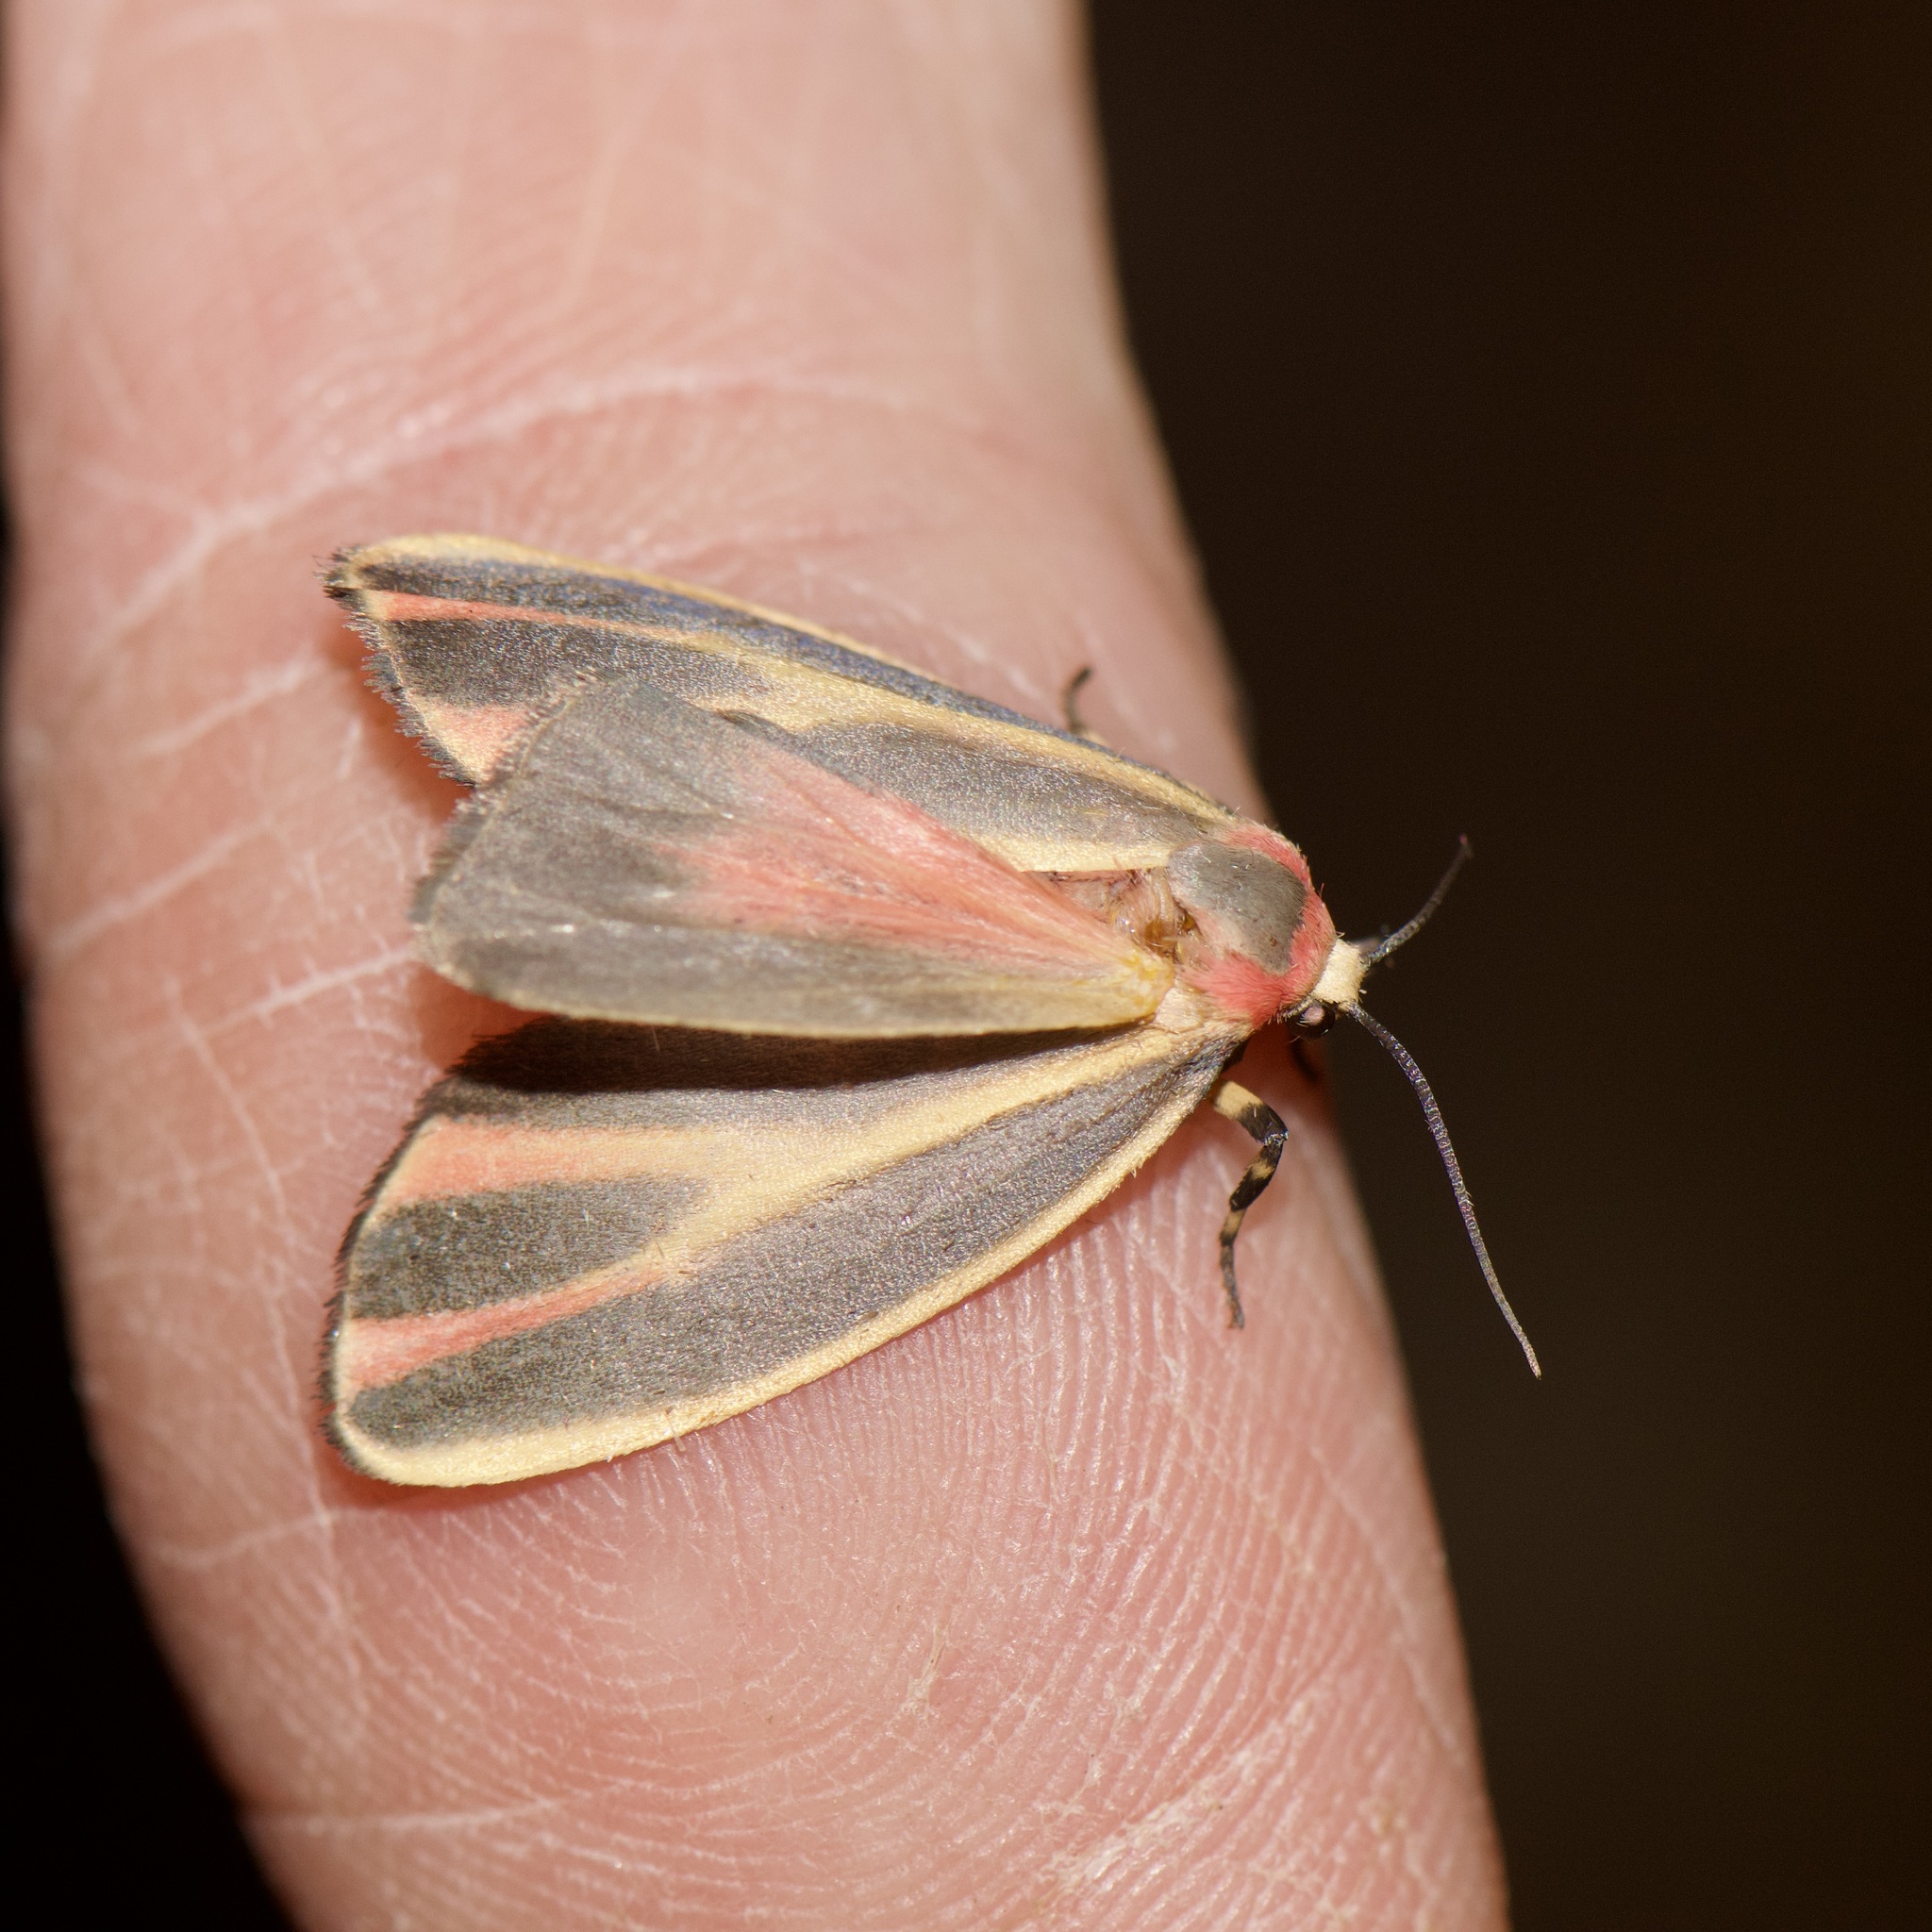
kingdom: Animalia
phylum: Arthropoda
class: Insecta
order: Lepidoptera
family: Erebidae
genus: Hypoprepia
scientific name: Hypoprepia fucosa
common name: Painted lichen moth
